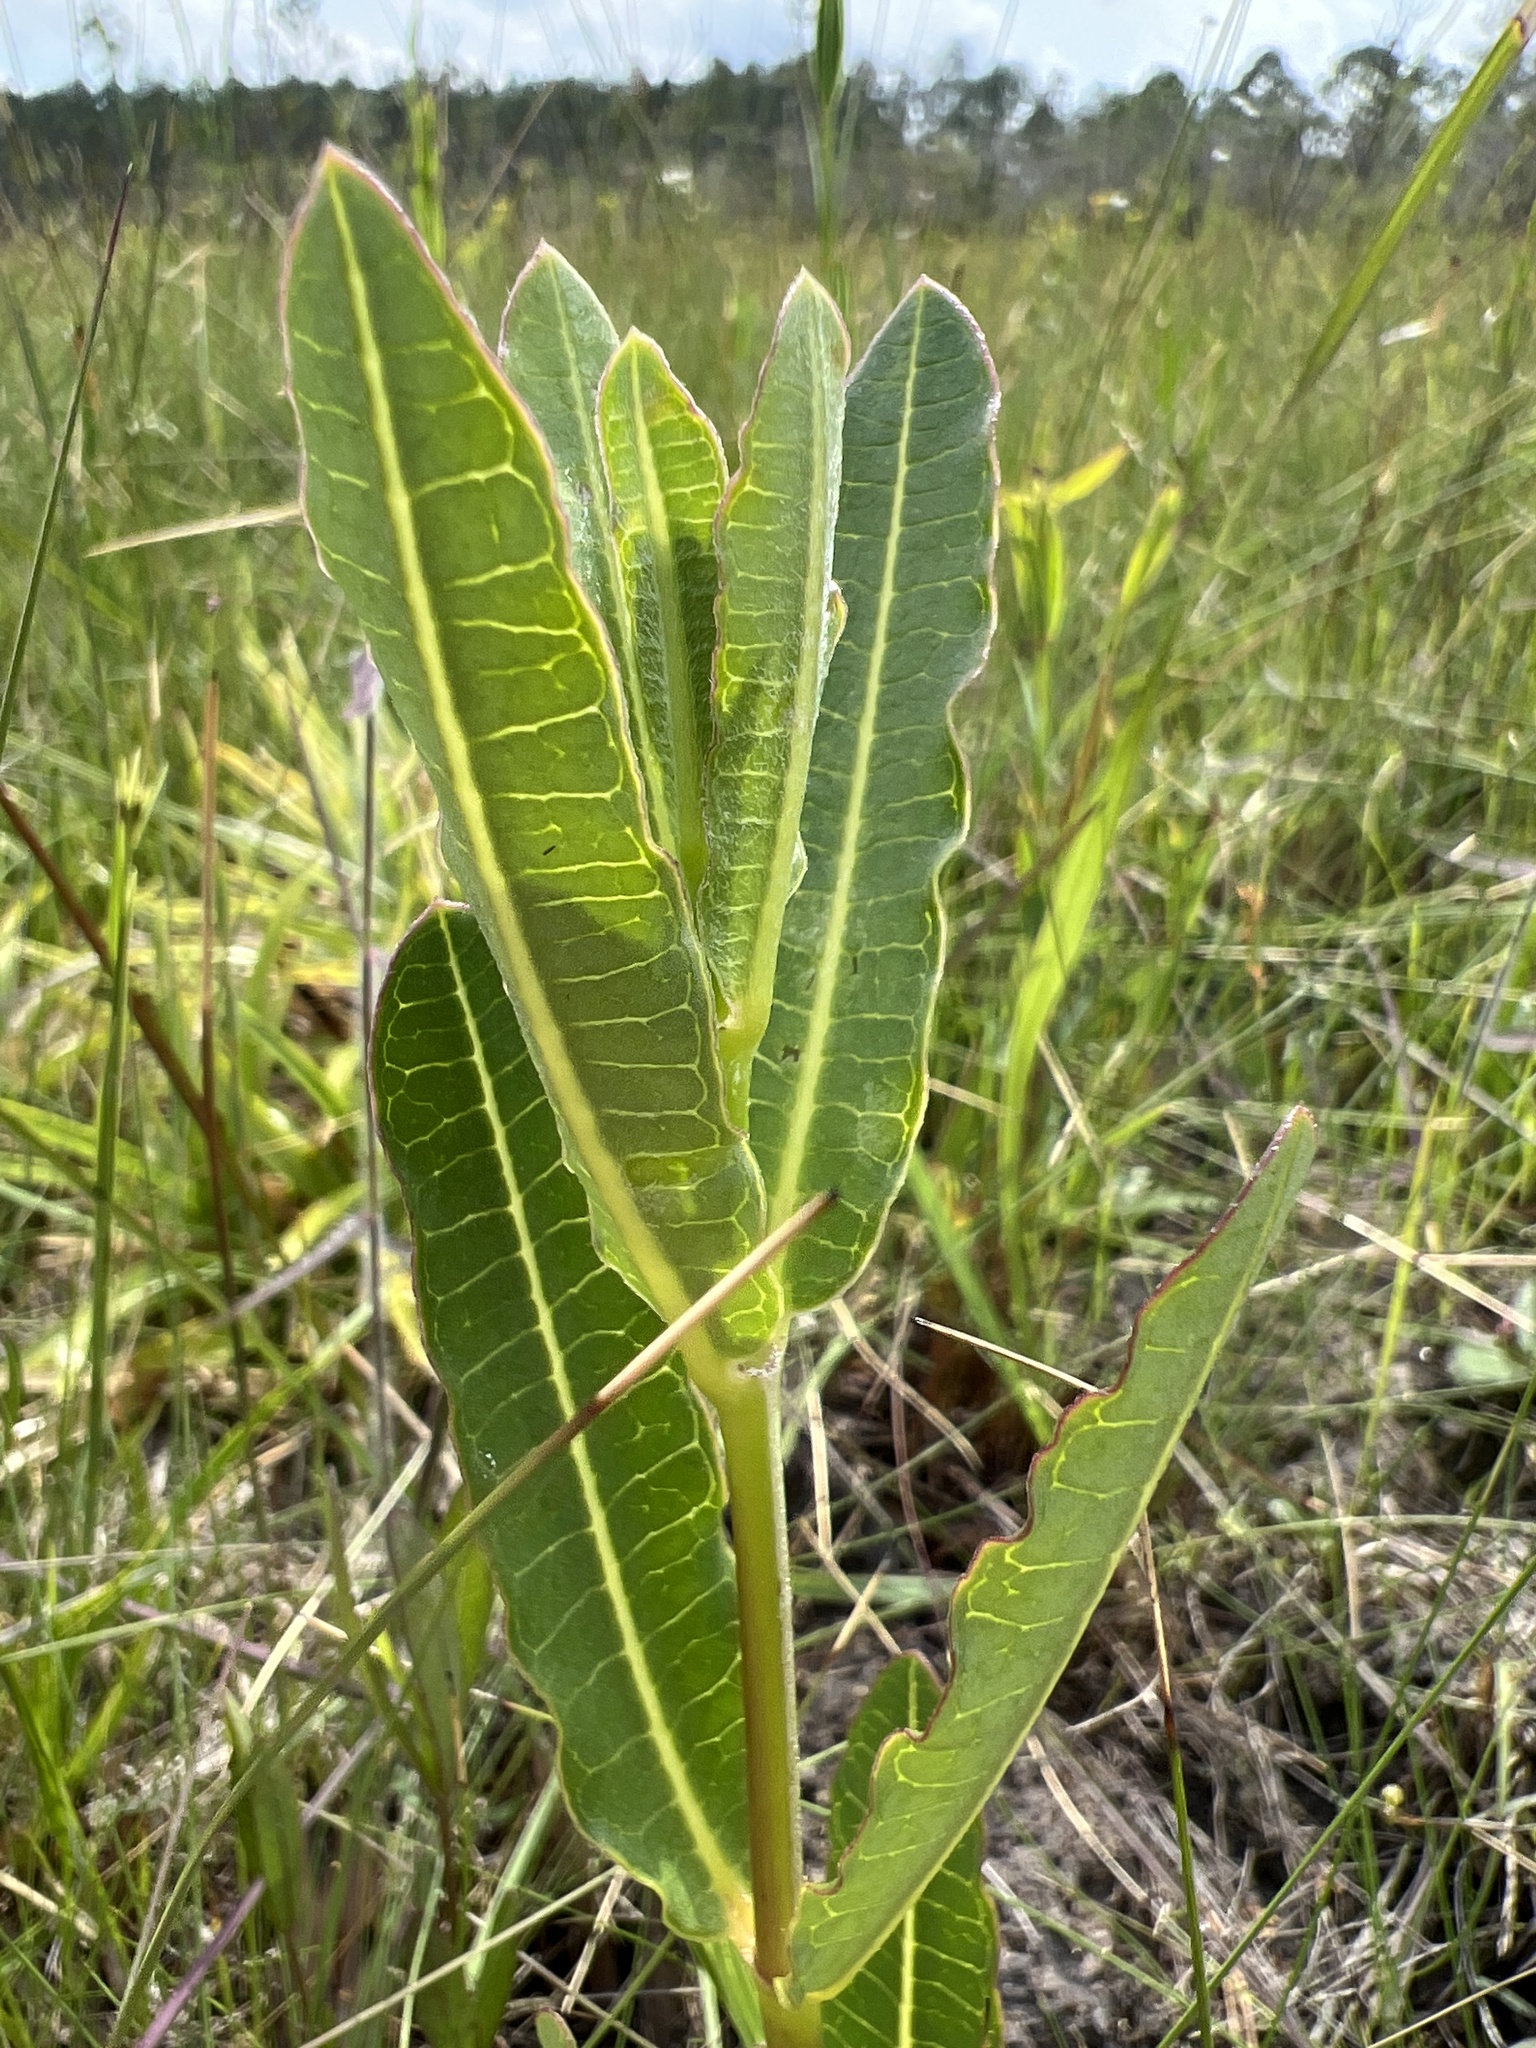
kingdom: Plantae
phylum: Tracheophyta
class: Magnoliopsida
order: Gentianales
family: Apocynaceae
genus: Asclepias
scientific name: Asclepias connivens
